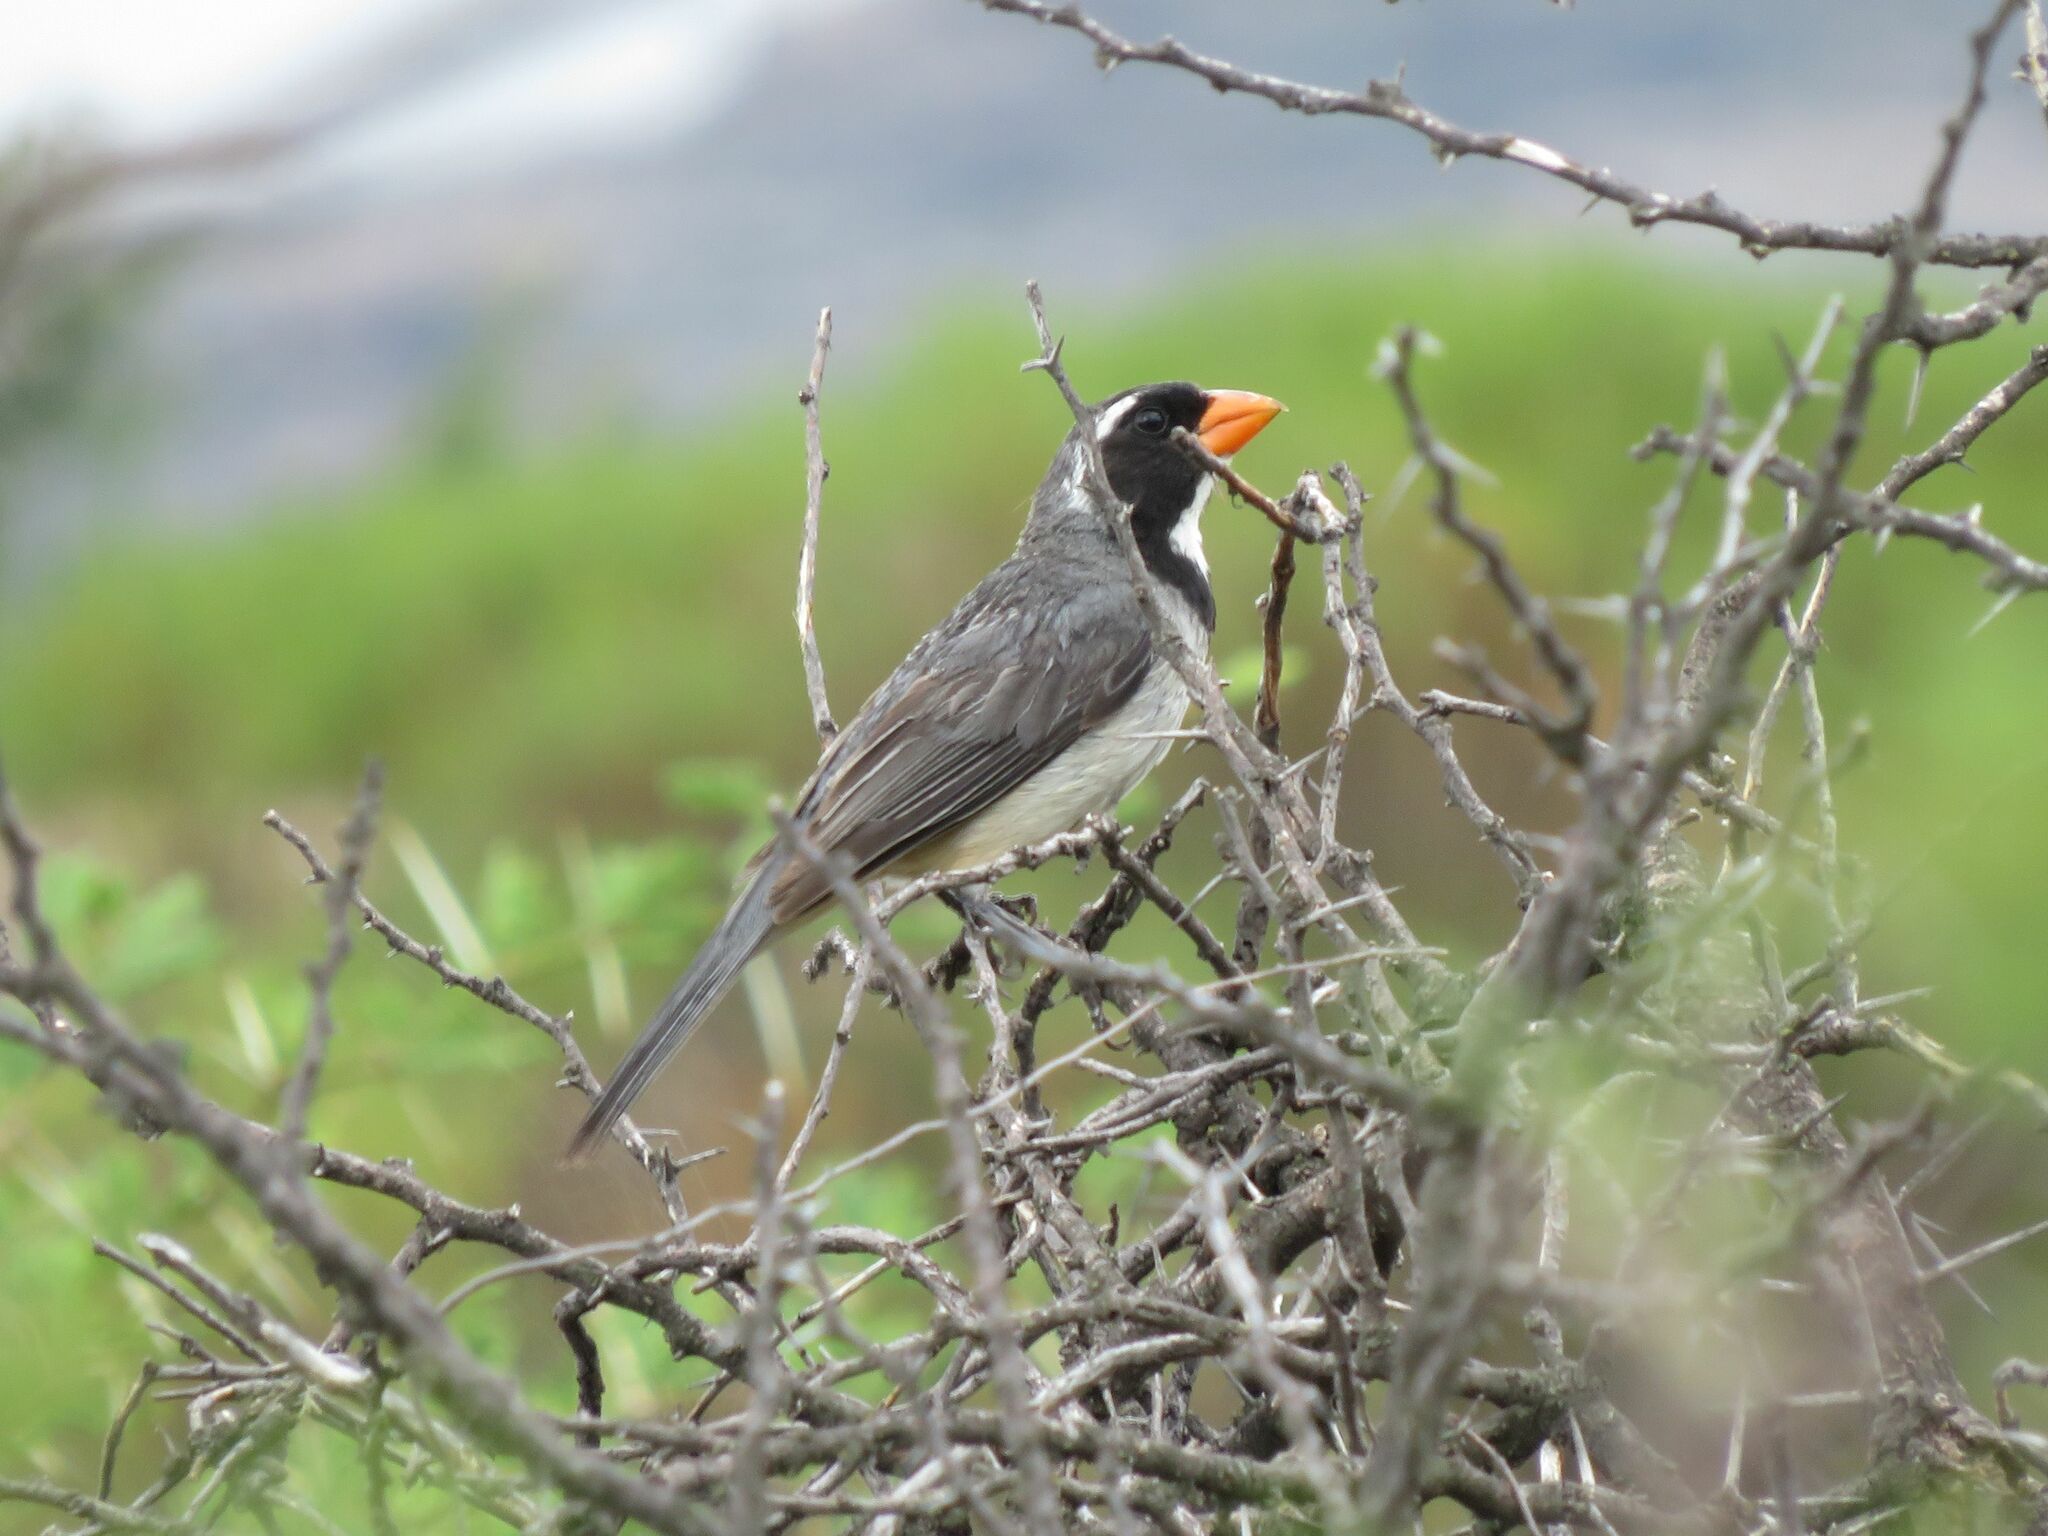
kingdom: Animalia
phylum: Chordata
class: Aves
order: Passeriformes
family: Thraupidae
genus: Saltator
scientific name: Saltator aurantiirostris
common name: Golden-billed saltator
